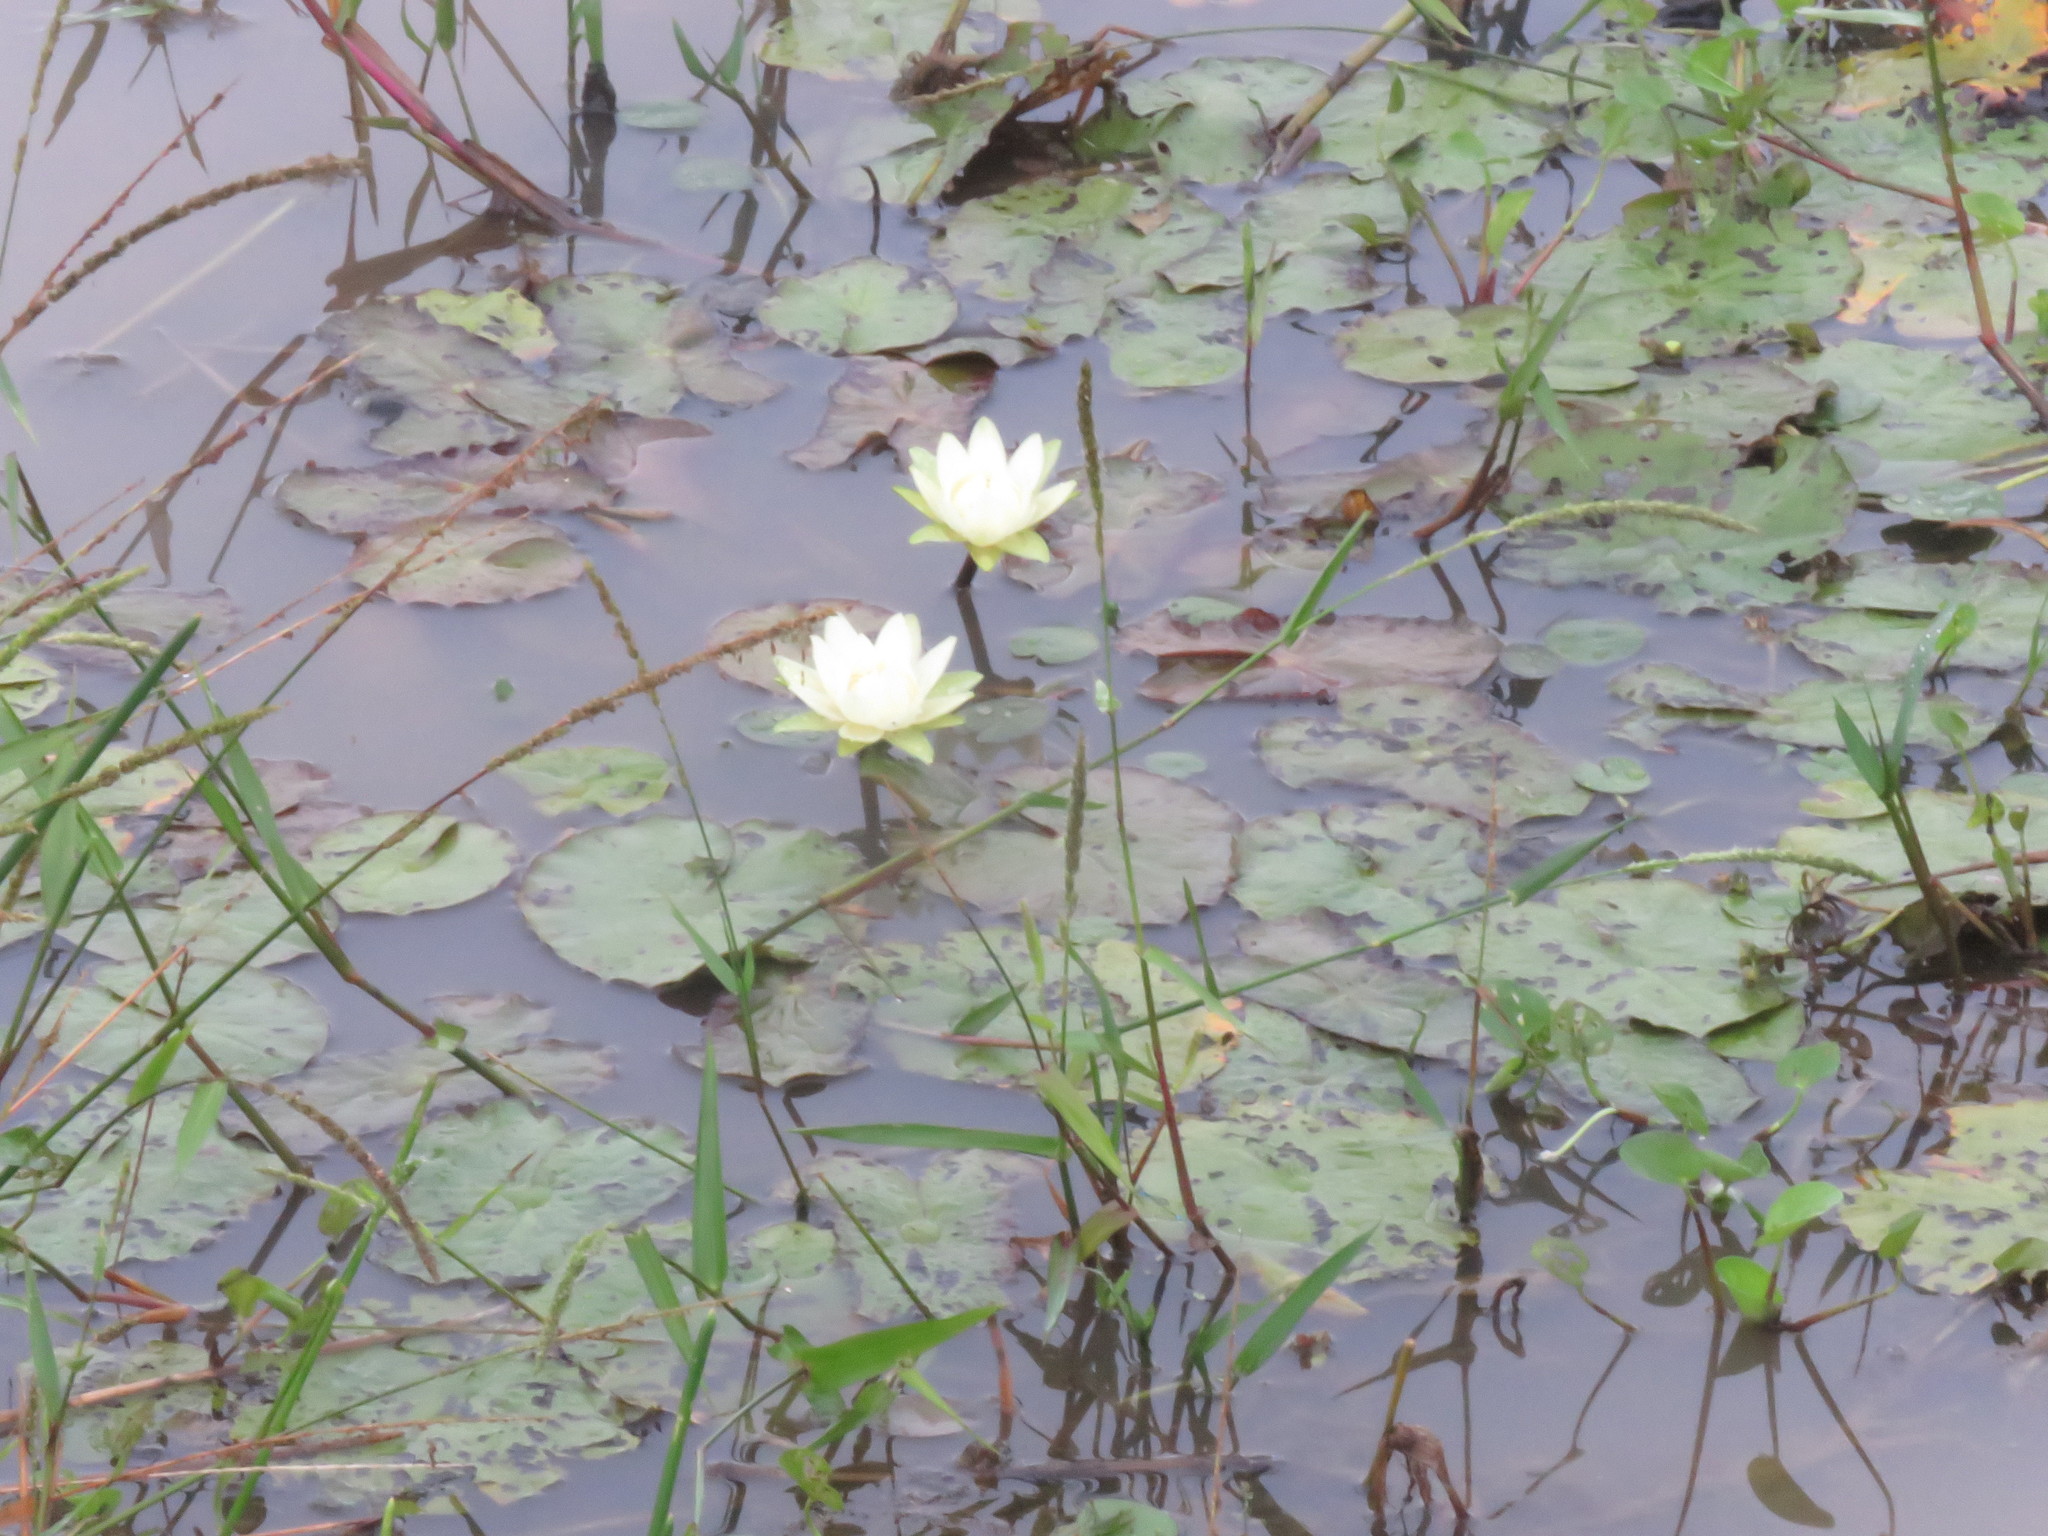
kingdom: Plantae
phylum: Tracheophyta
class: Magnoliopsida
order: Nymphaeales
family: Nymphaeaceae
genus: Nymphaea
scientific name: Nymphaea amazonum
